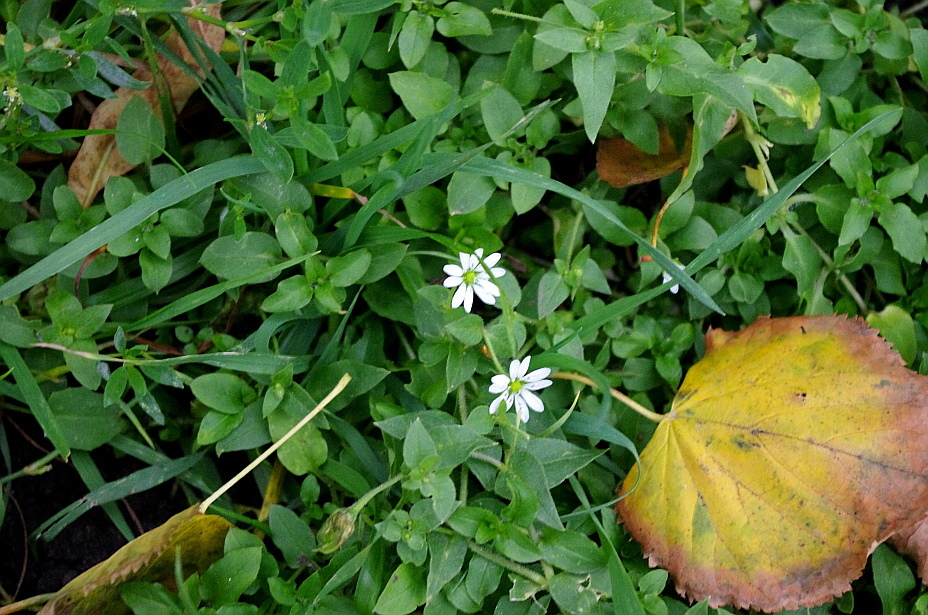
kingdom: Plantae
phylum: Tracheophyta
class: Magnoliopsida
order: Caryophyllales
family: Caryophyllaceae
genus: Stellaria
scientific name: Stellaria aquatica
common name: Water chickweed
